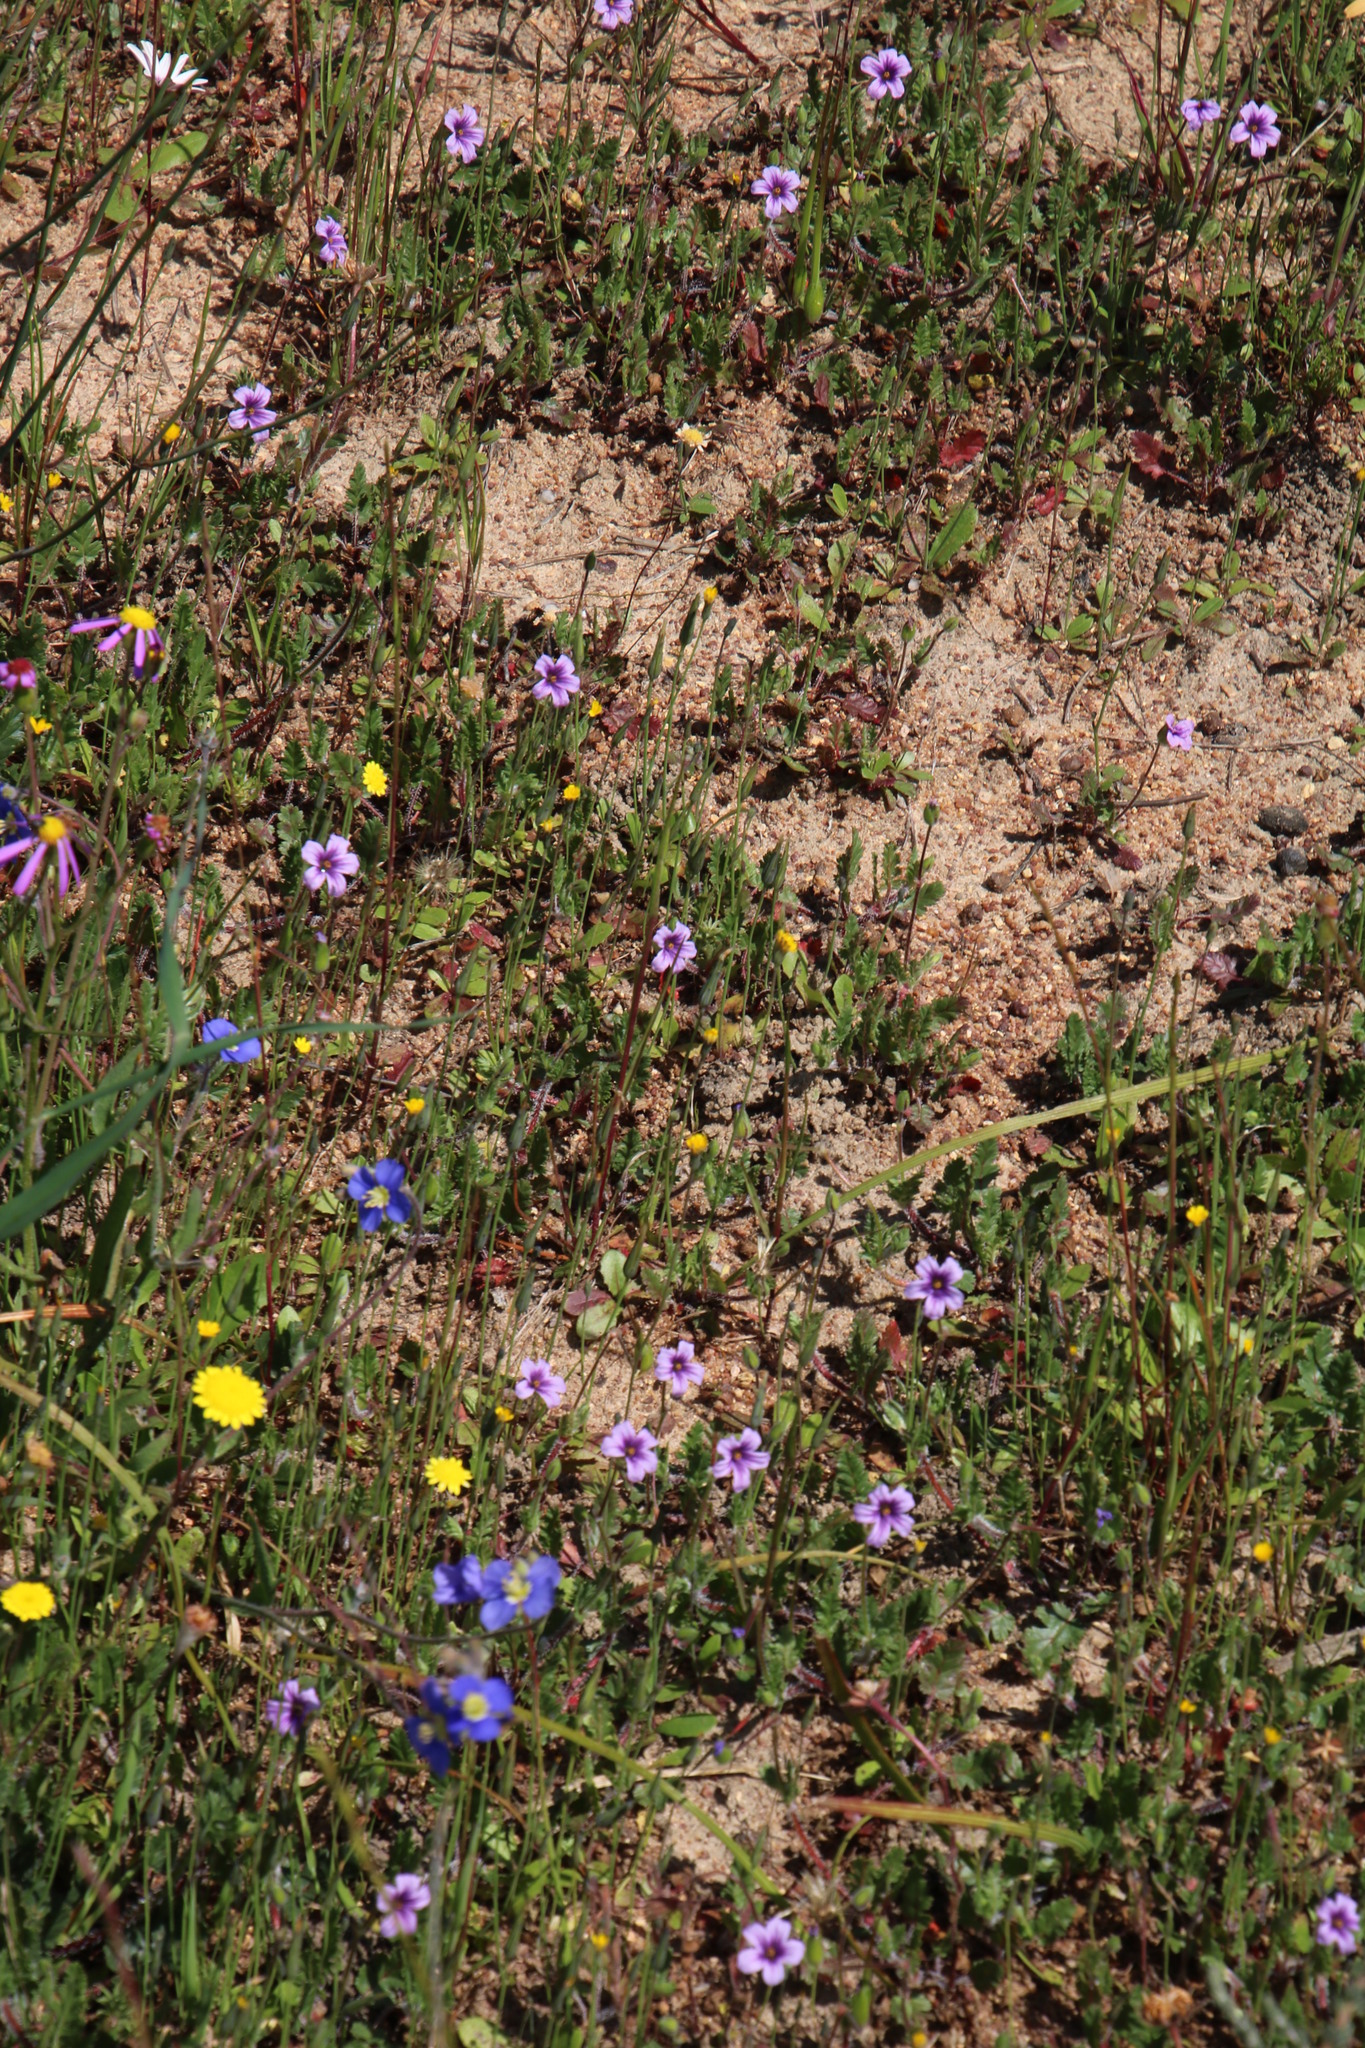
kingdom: Plantae
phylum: Tracheophyta
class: Magnoliopsida
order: Geraniales
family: Geraniaceae
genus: Erodium
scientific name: Erodium botrys
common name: Mediterranean stork's-bill
